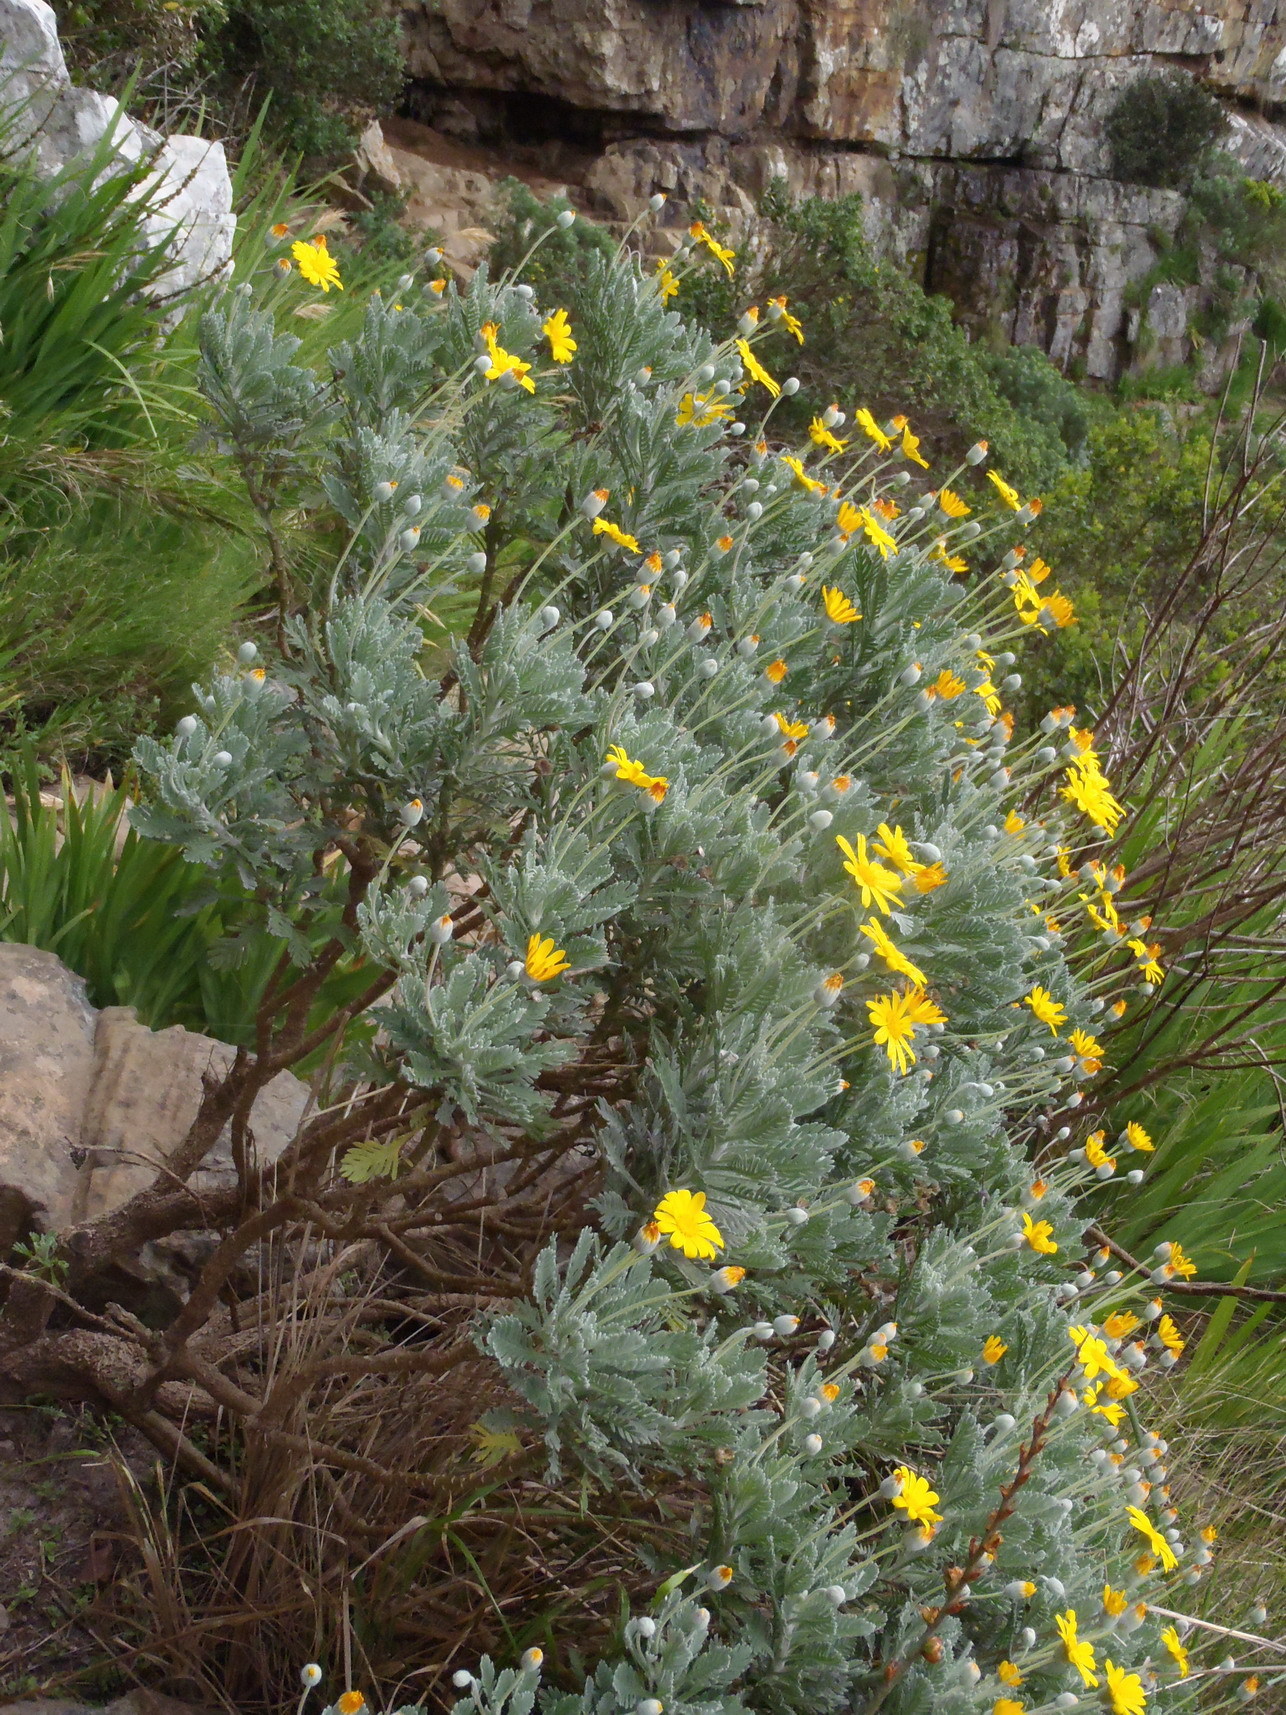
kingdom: Plantae
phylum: Tracheophyta
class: Magnoliopsida
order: Asterales
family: Asteraceae
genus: Euryops
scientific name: Euryops pectinatus
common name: Gray-leaf euryops
